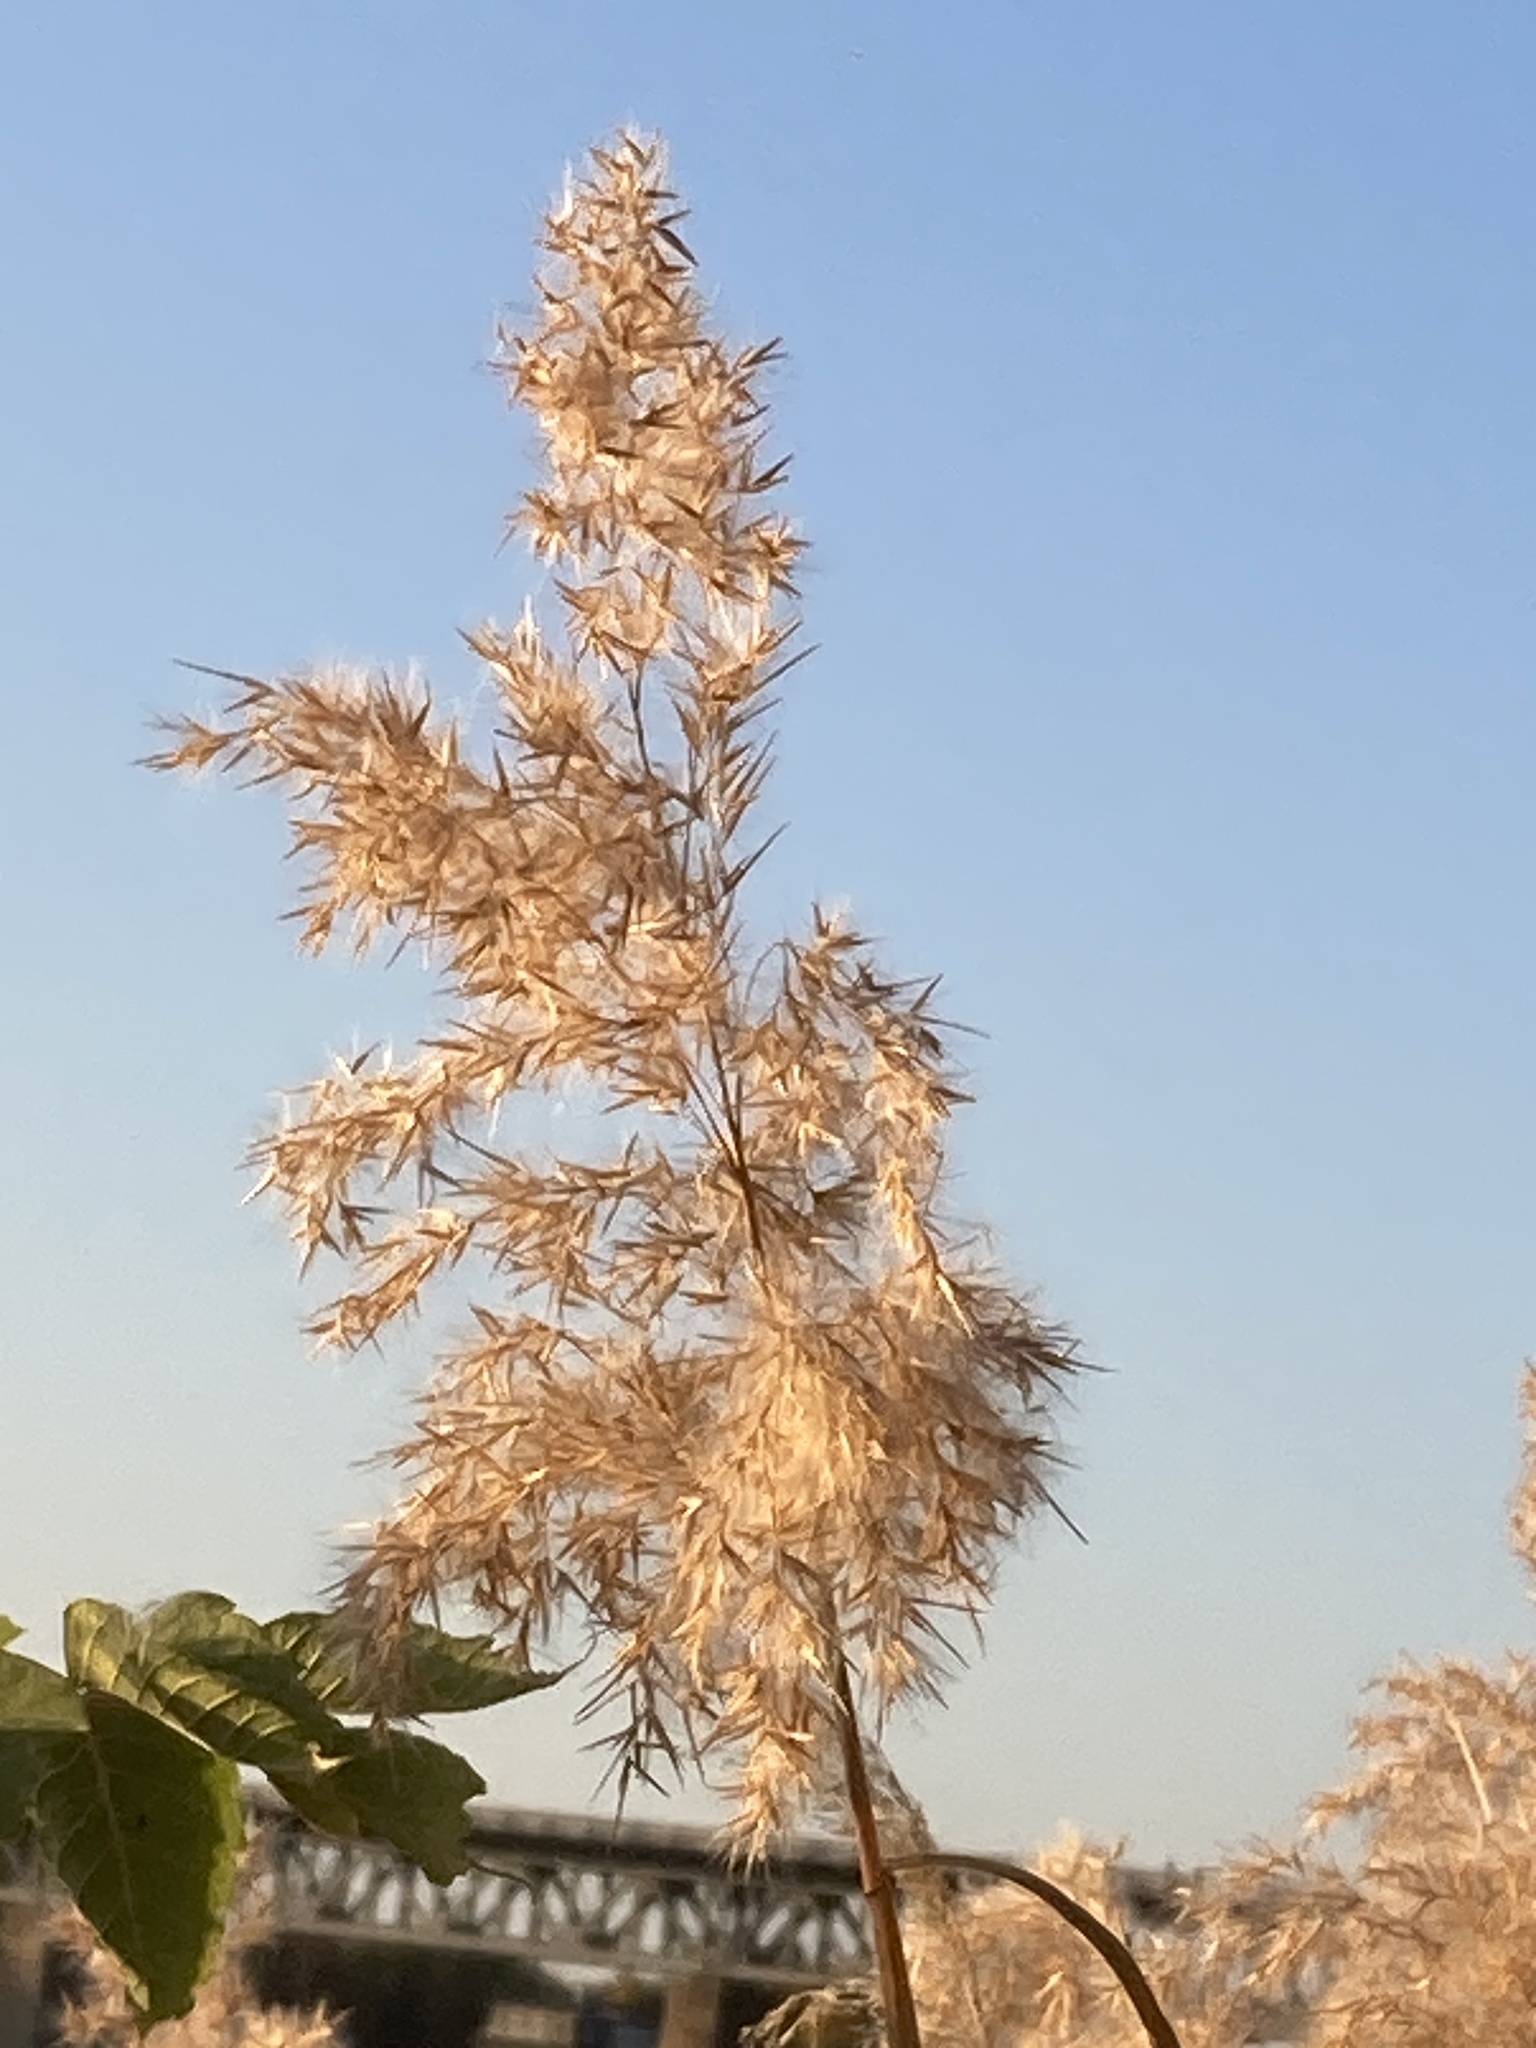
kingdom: Plantae
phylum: Tracheophyta
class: Liliopsida
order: Poales
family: Poaceae
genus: Phragmites
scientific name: Phragmites australis
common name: Common reed
